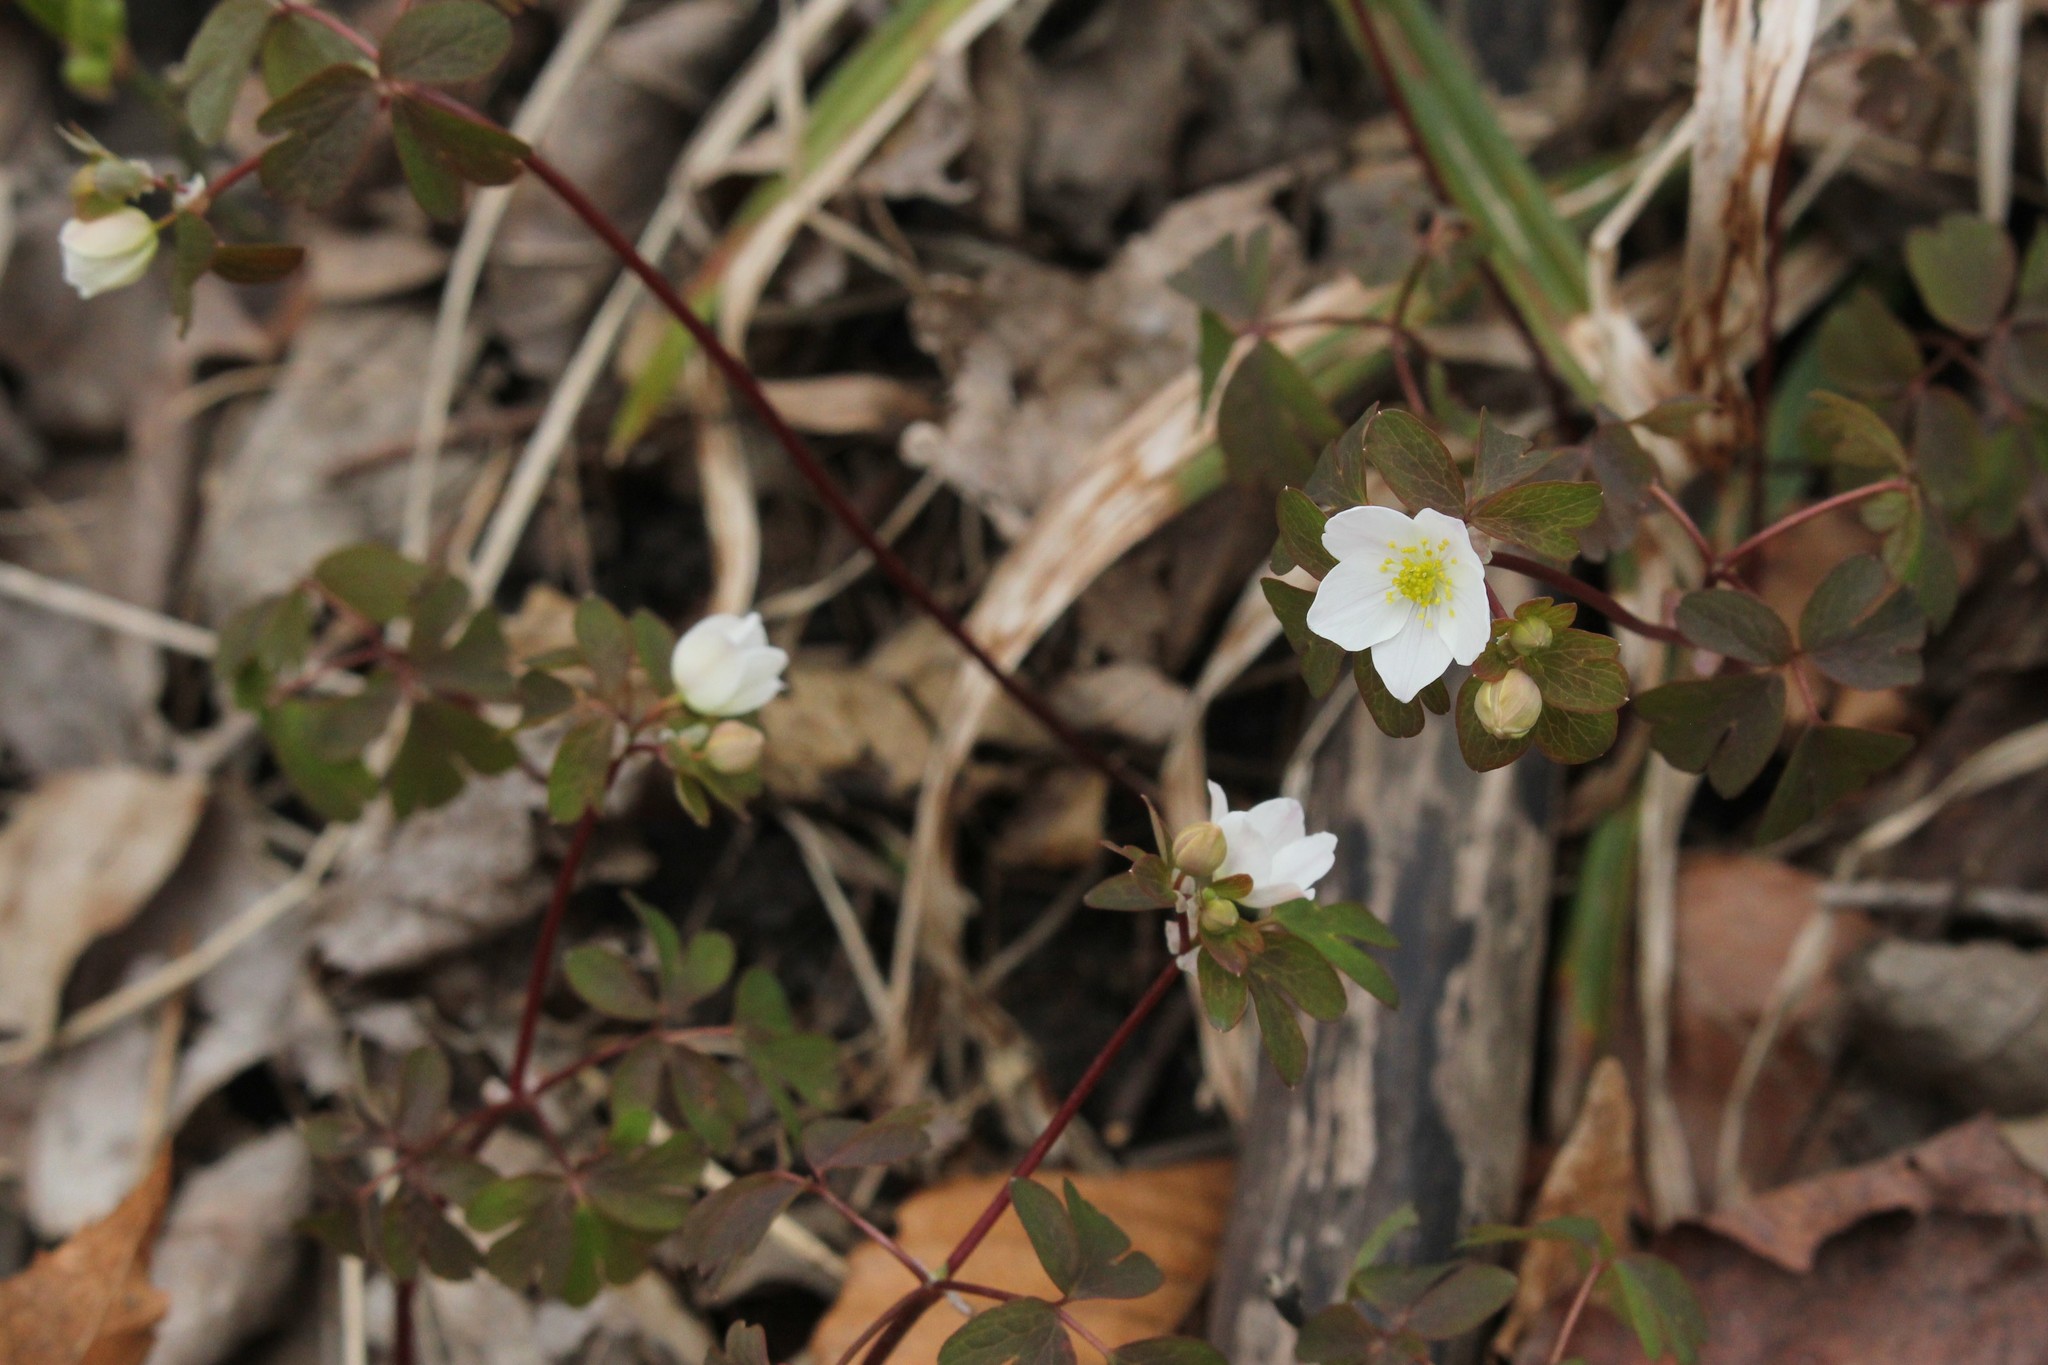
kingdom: Plantae
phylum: Tracheophyta
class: Magnoliopsida
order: Ranunculales
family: Ranunculaceae
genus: Enemion
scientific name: Enemion biternatum
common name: Eastern false rue-anemone
